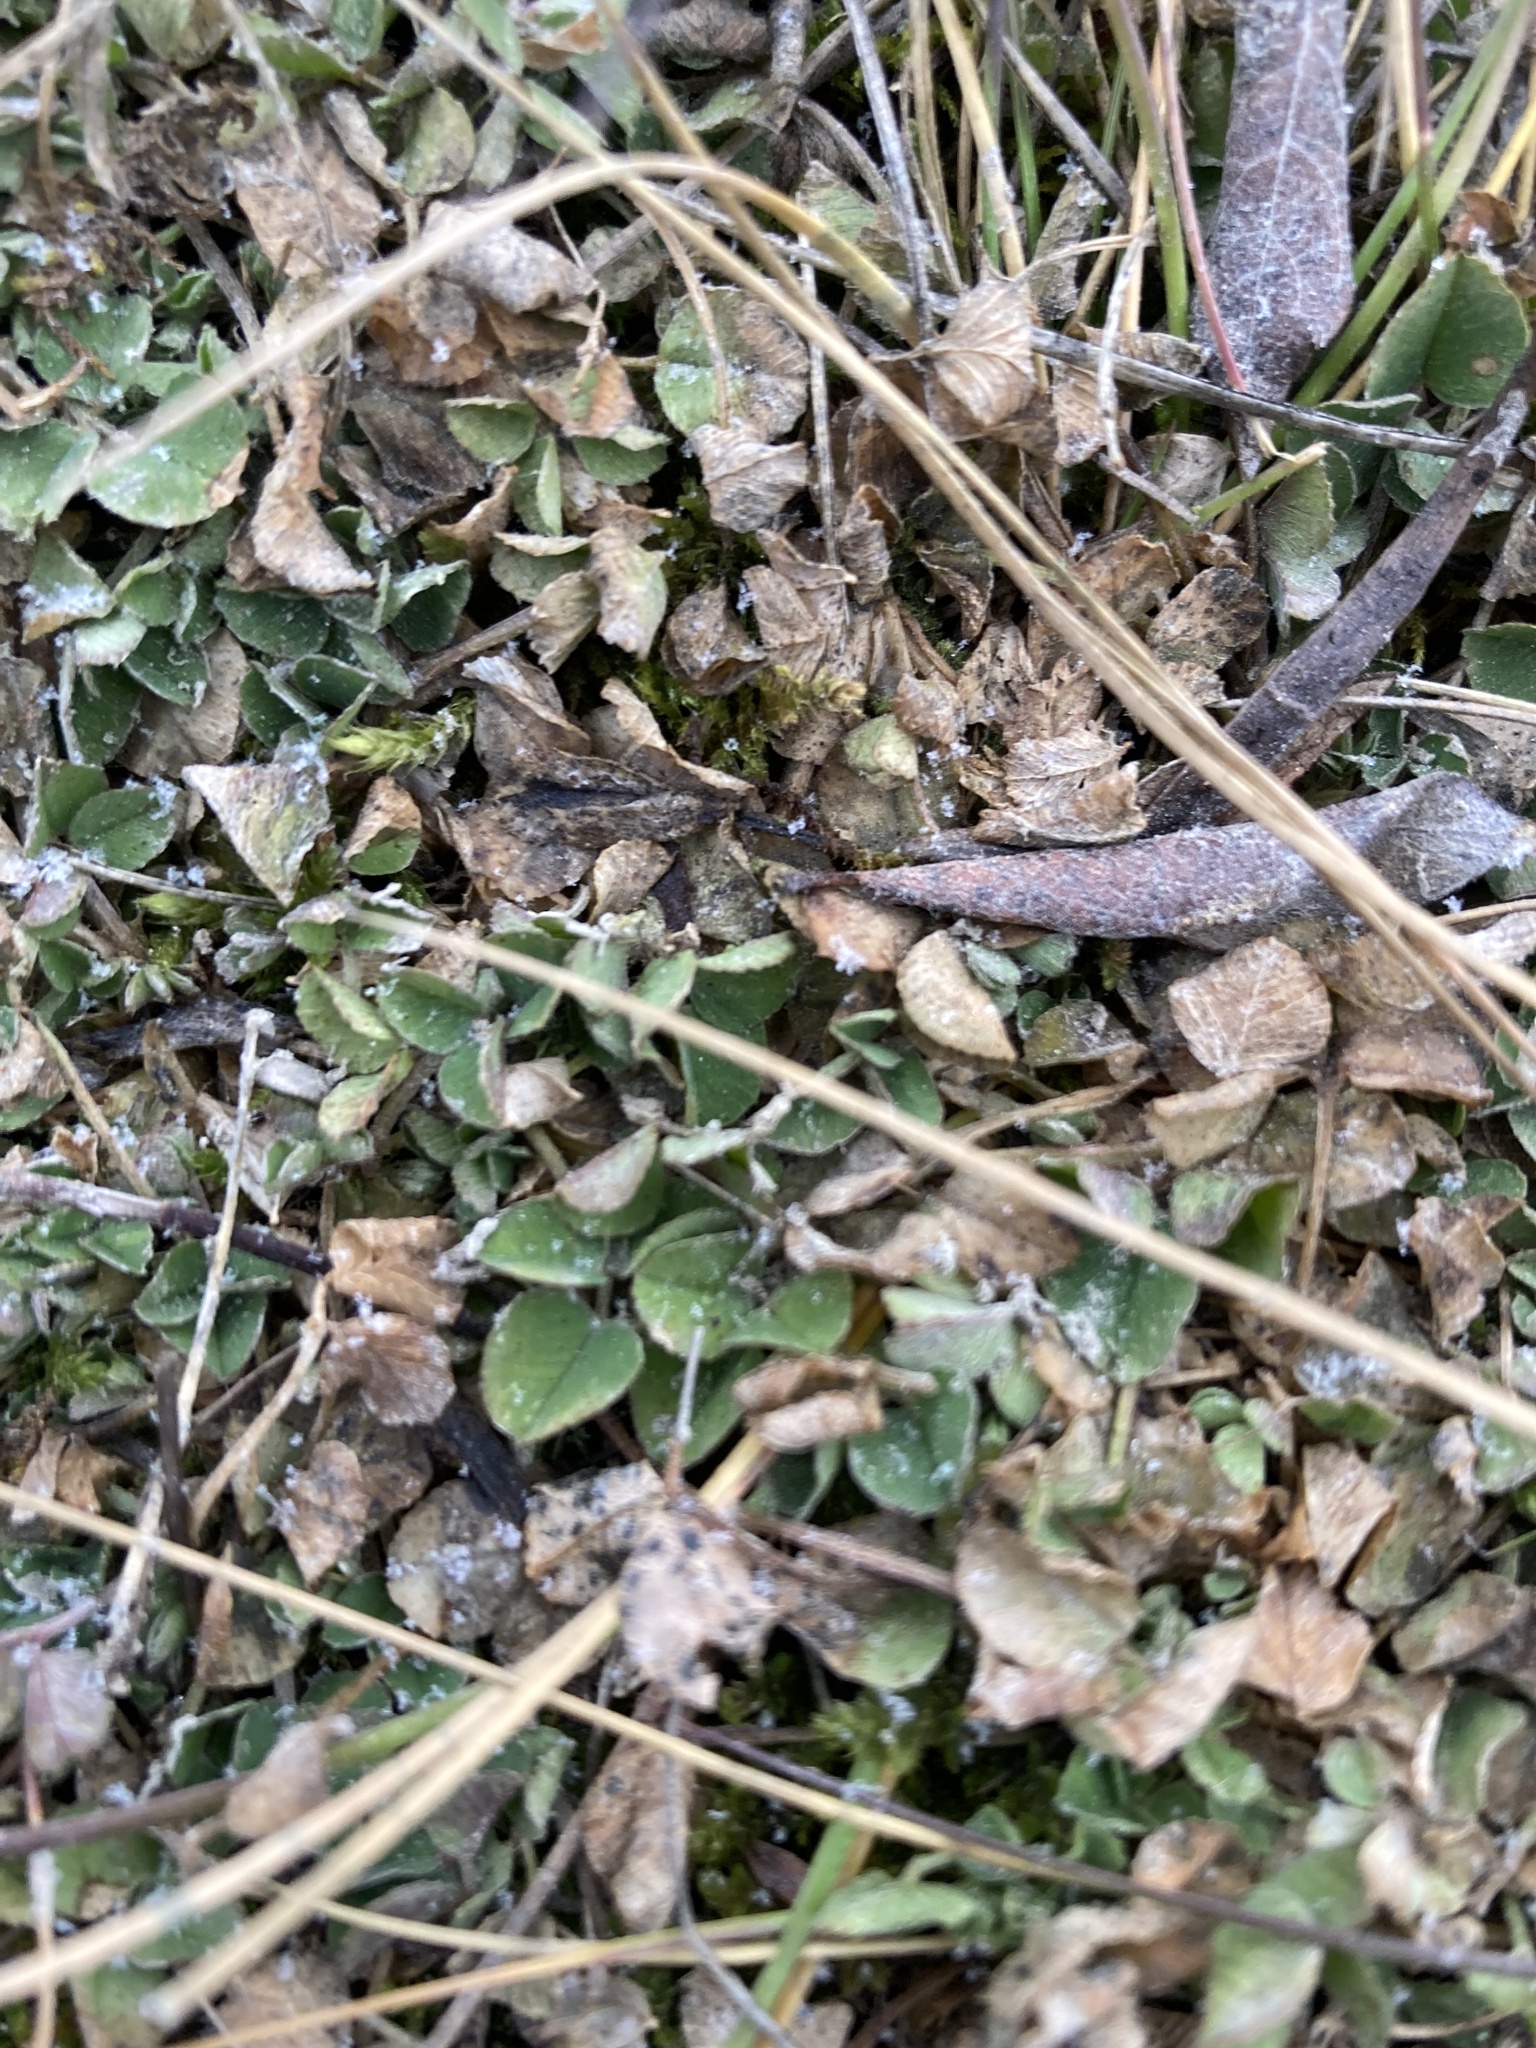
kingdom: Plantae
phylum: Tracheophyta
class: Magnoliopsida
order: Fabales
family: Fabaceae
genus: Medicago
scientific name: Medicago lupulina
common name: Black medick
